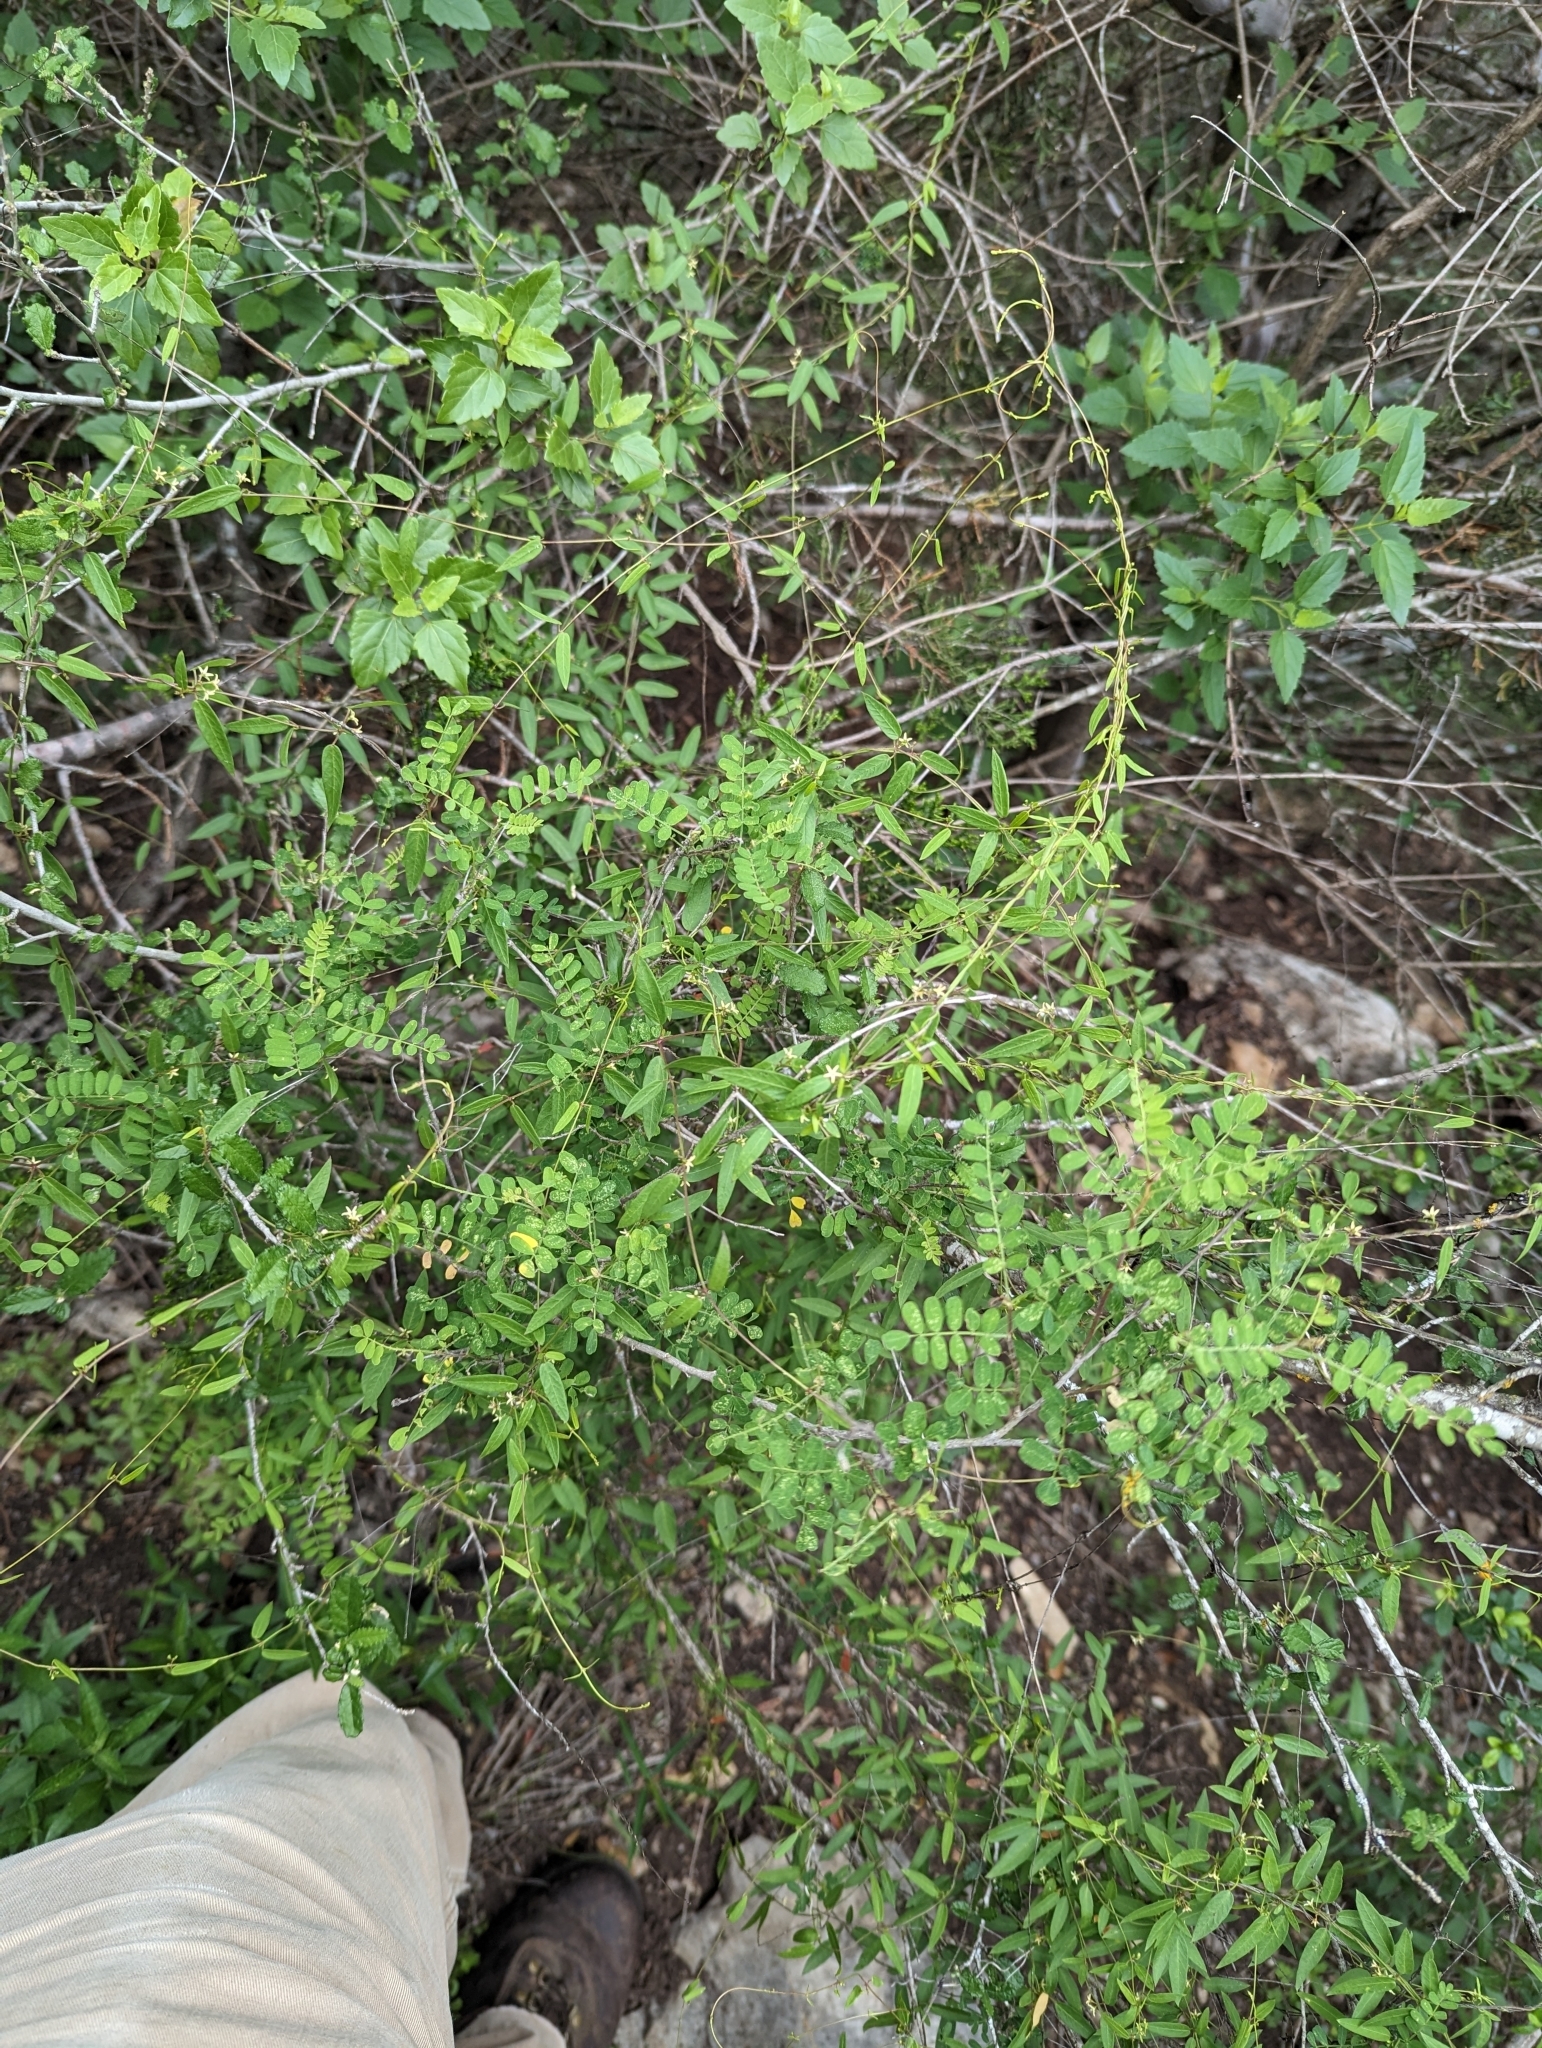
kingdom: Plantae
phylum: Tracheophyta
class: Magnoliopsida
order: Gentianales
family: Apocynaceae
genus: Metastelma
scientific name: Metastelma palmeri
